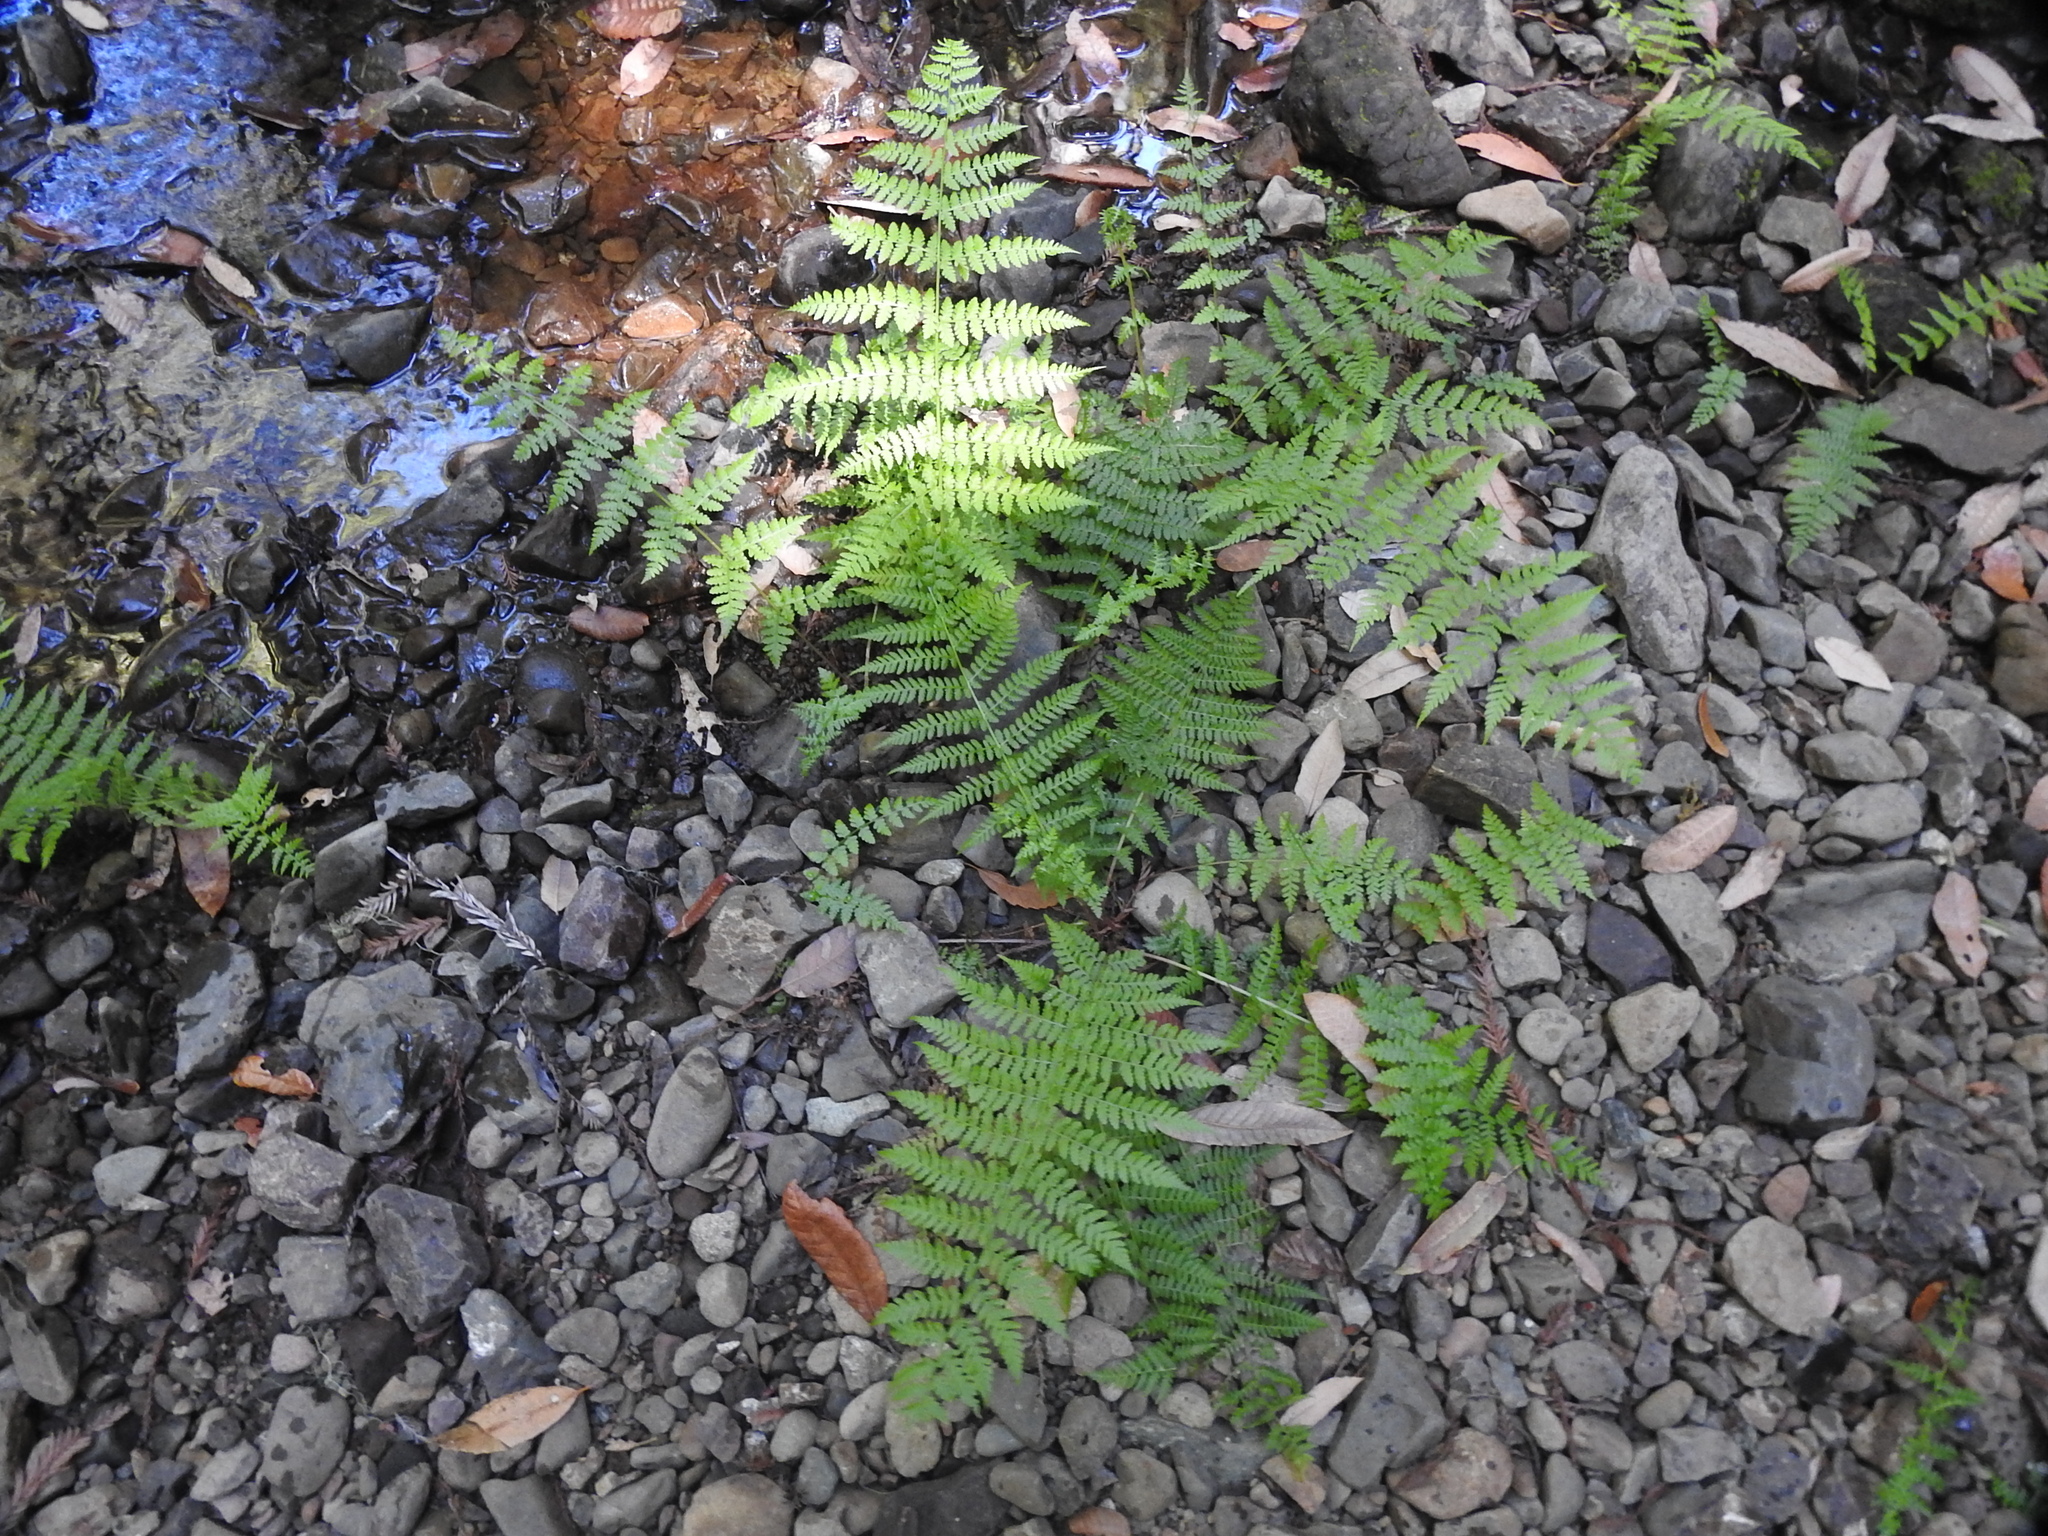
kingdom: Plantae
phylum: Tracheophyta
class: Polypodiopsida
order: Polypodiales
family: Athyriaceae
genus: Athyrium
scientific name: Athyrium filix-femina
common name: Lady fern
